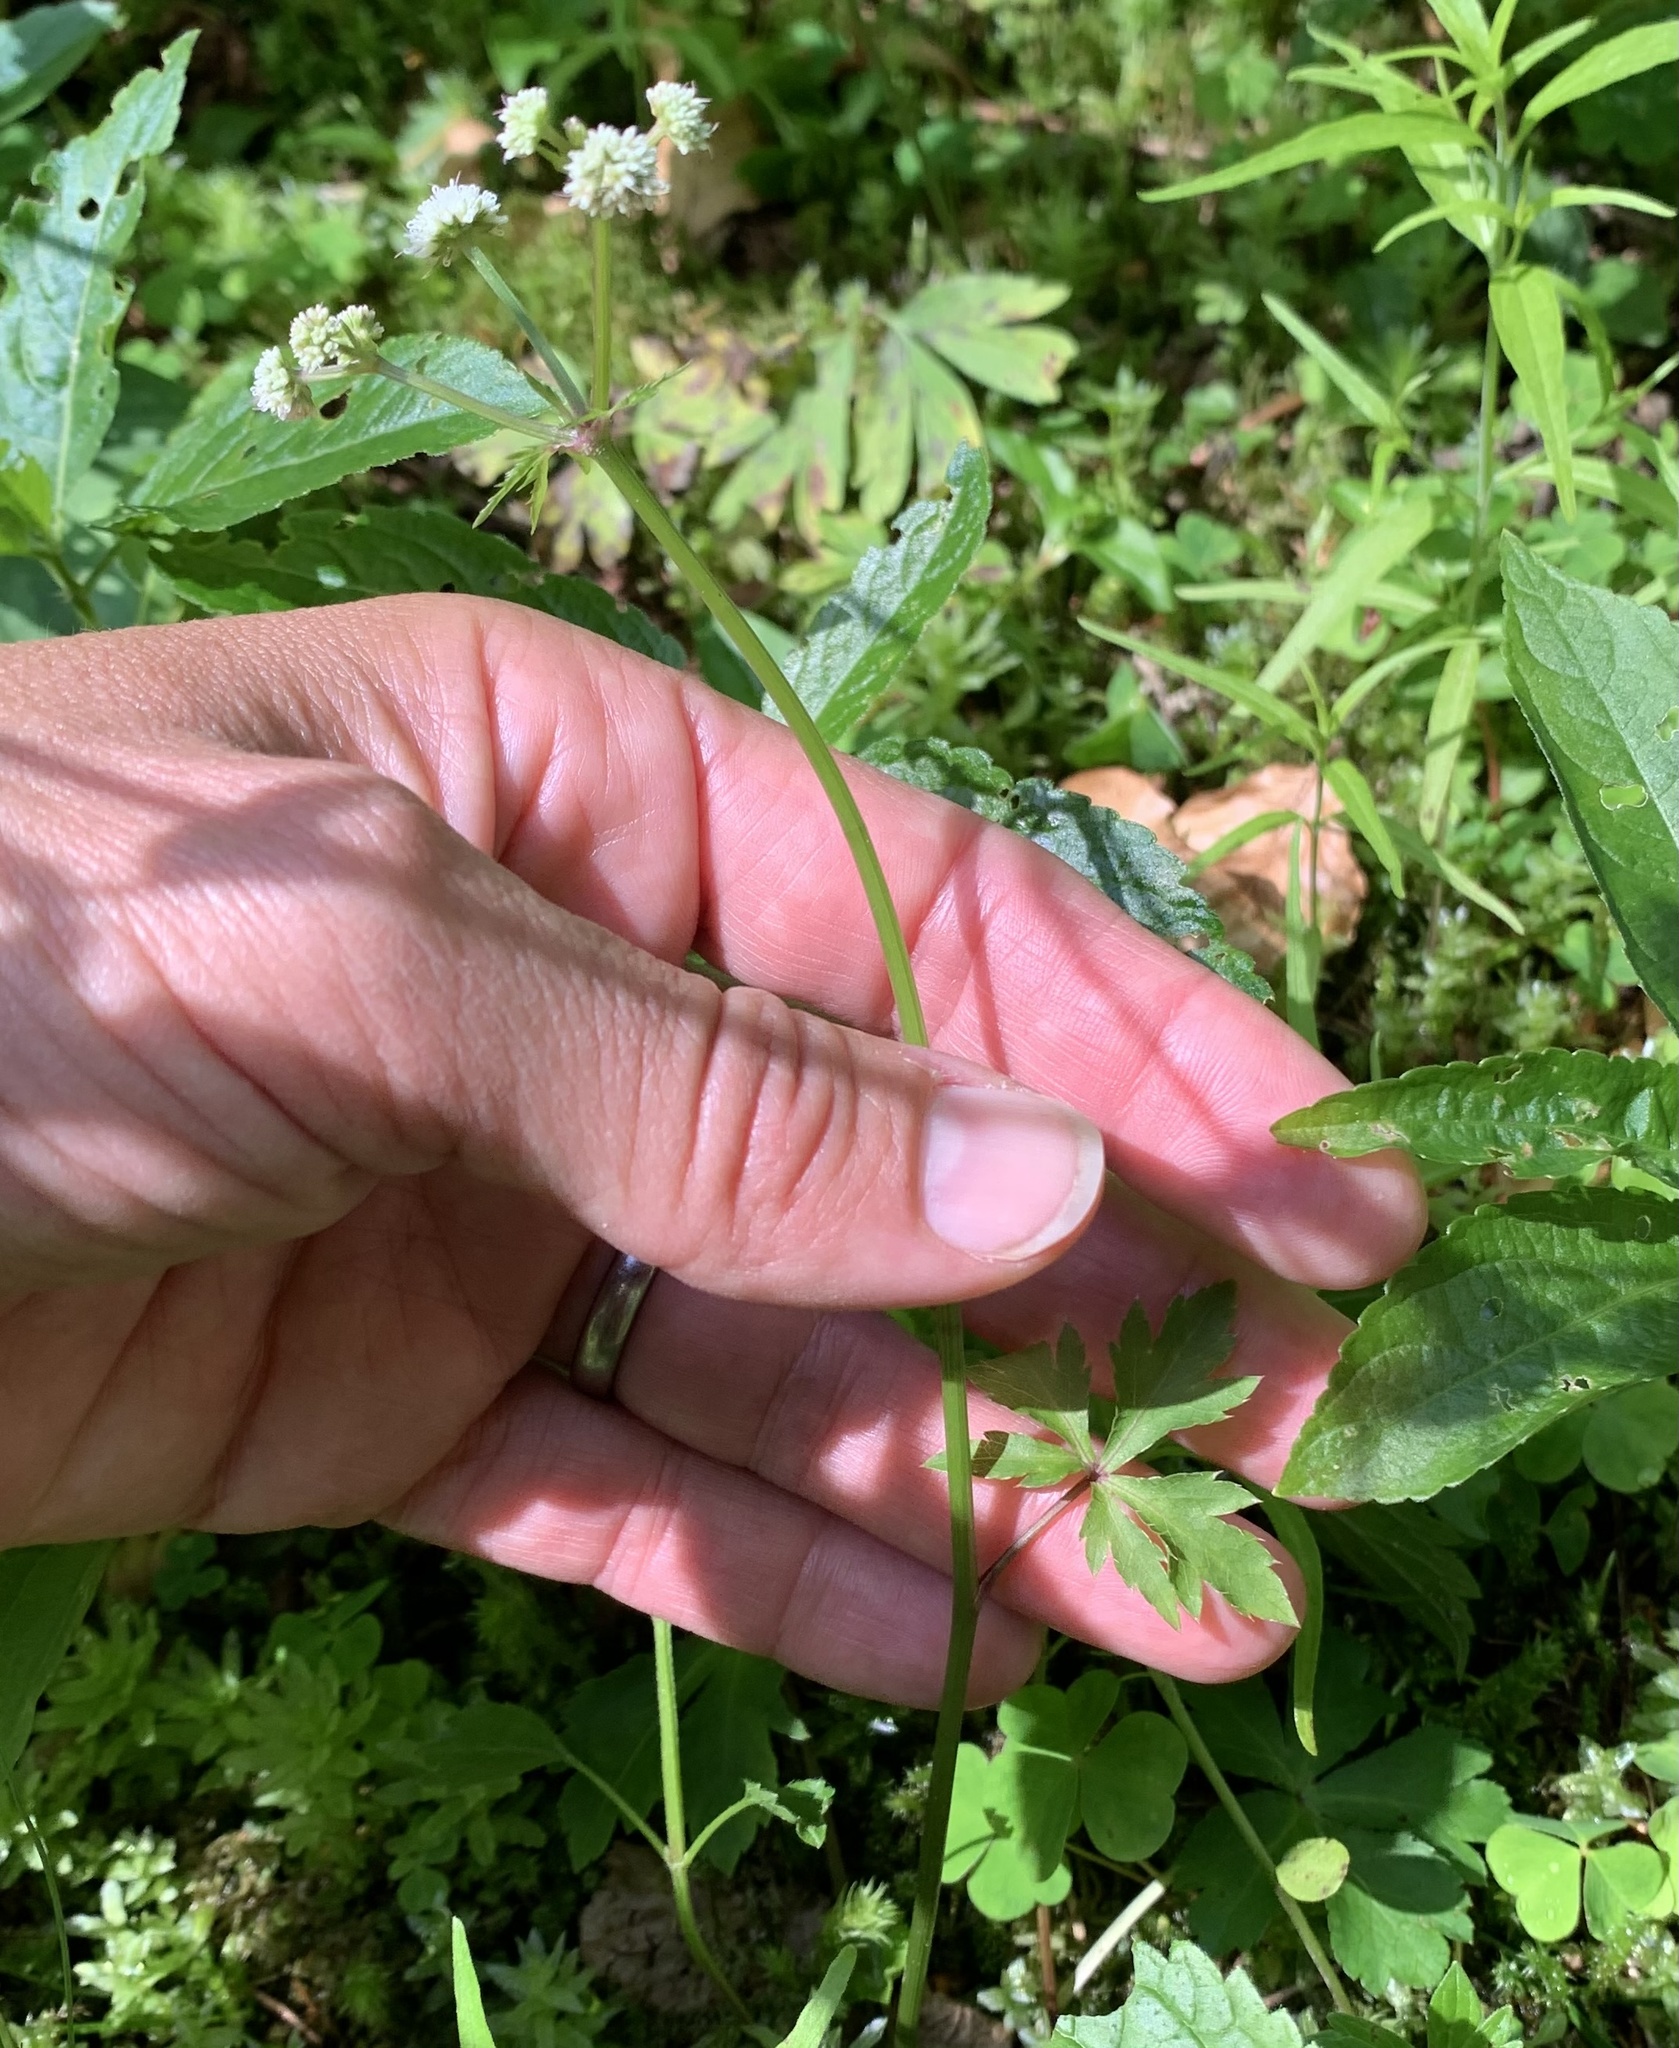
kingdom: Plantae
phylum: Tracheophyta
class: Magnoliopsida
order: Apiales
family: Apiaceae
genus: Sanicula
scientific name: Sanicula europaea
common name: Sanicle
